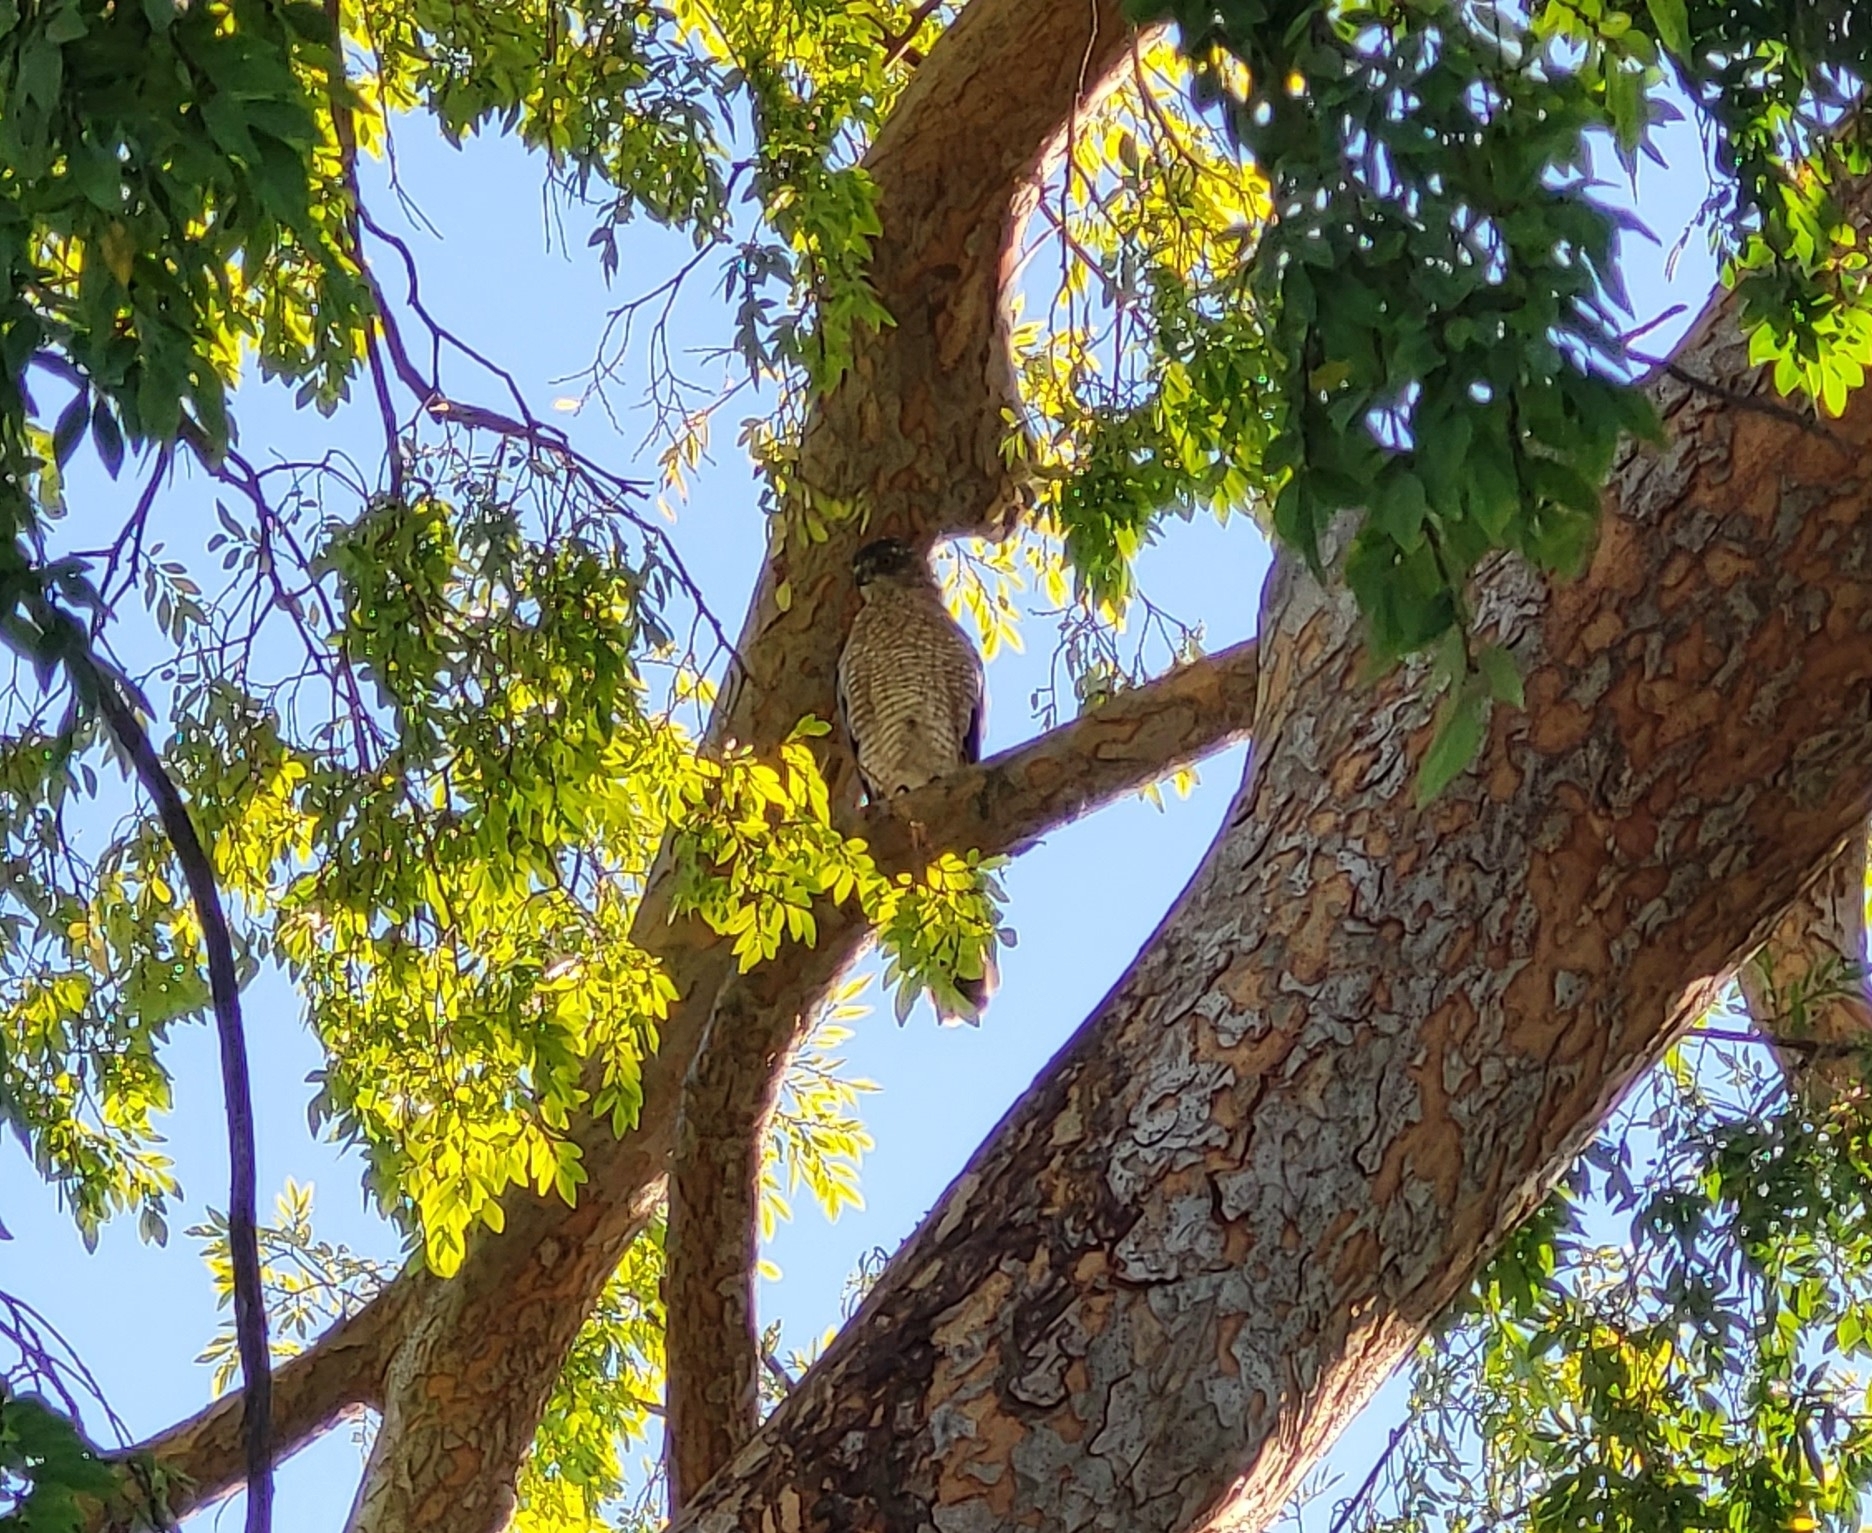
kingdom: Animalia
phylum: Chordata
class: Aves
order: Accipitriformes
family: Accipitridae
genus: Accipiter
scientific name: Accipiter cooperii
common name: Cooper's hawk
